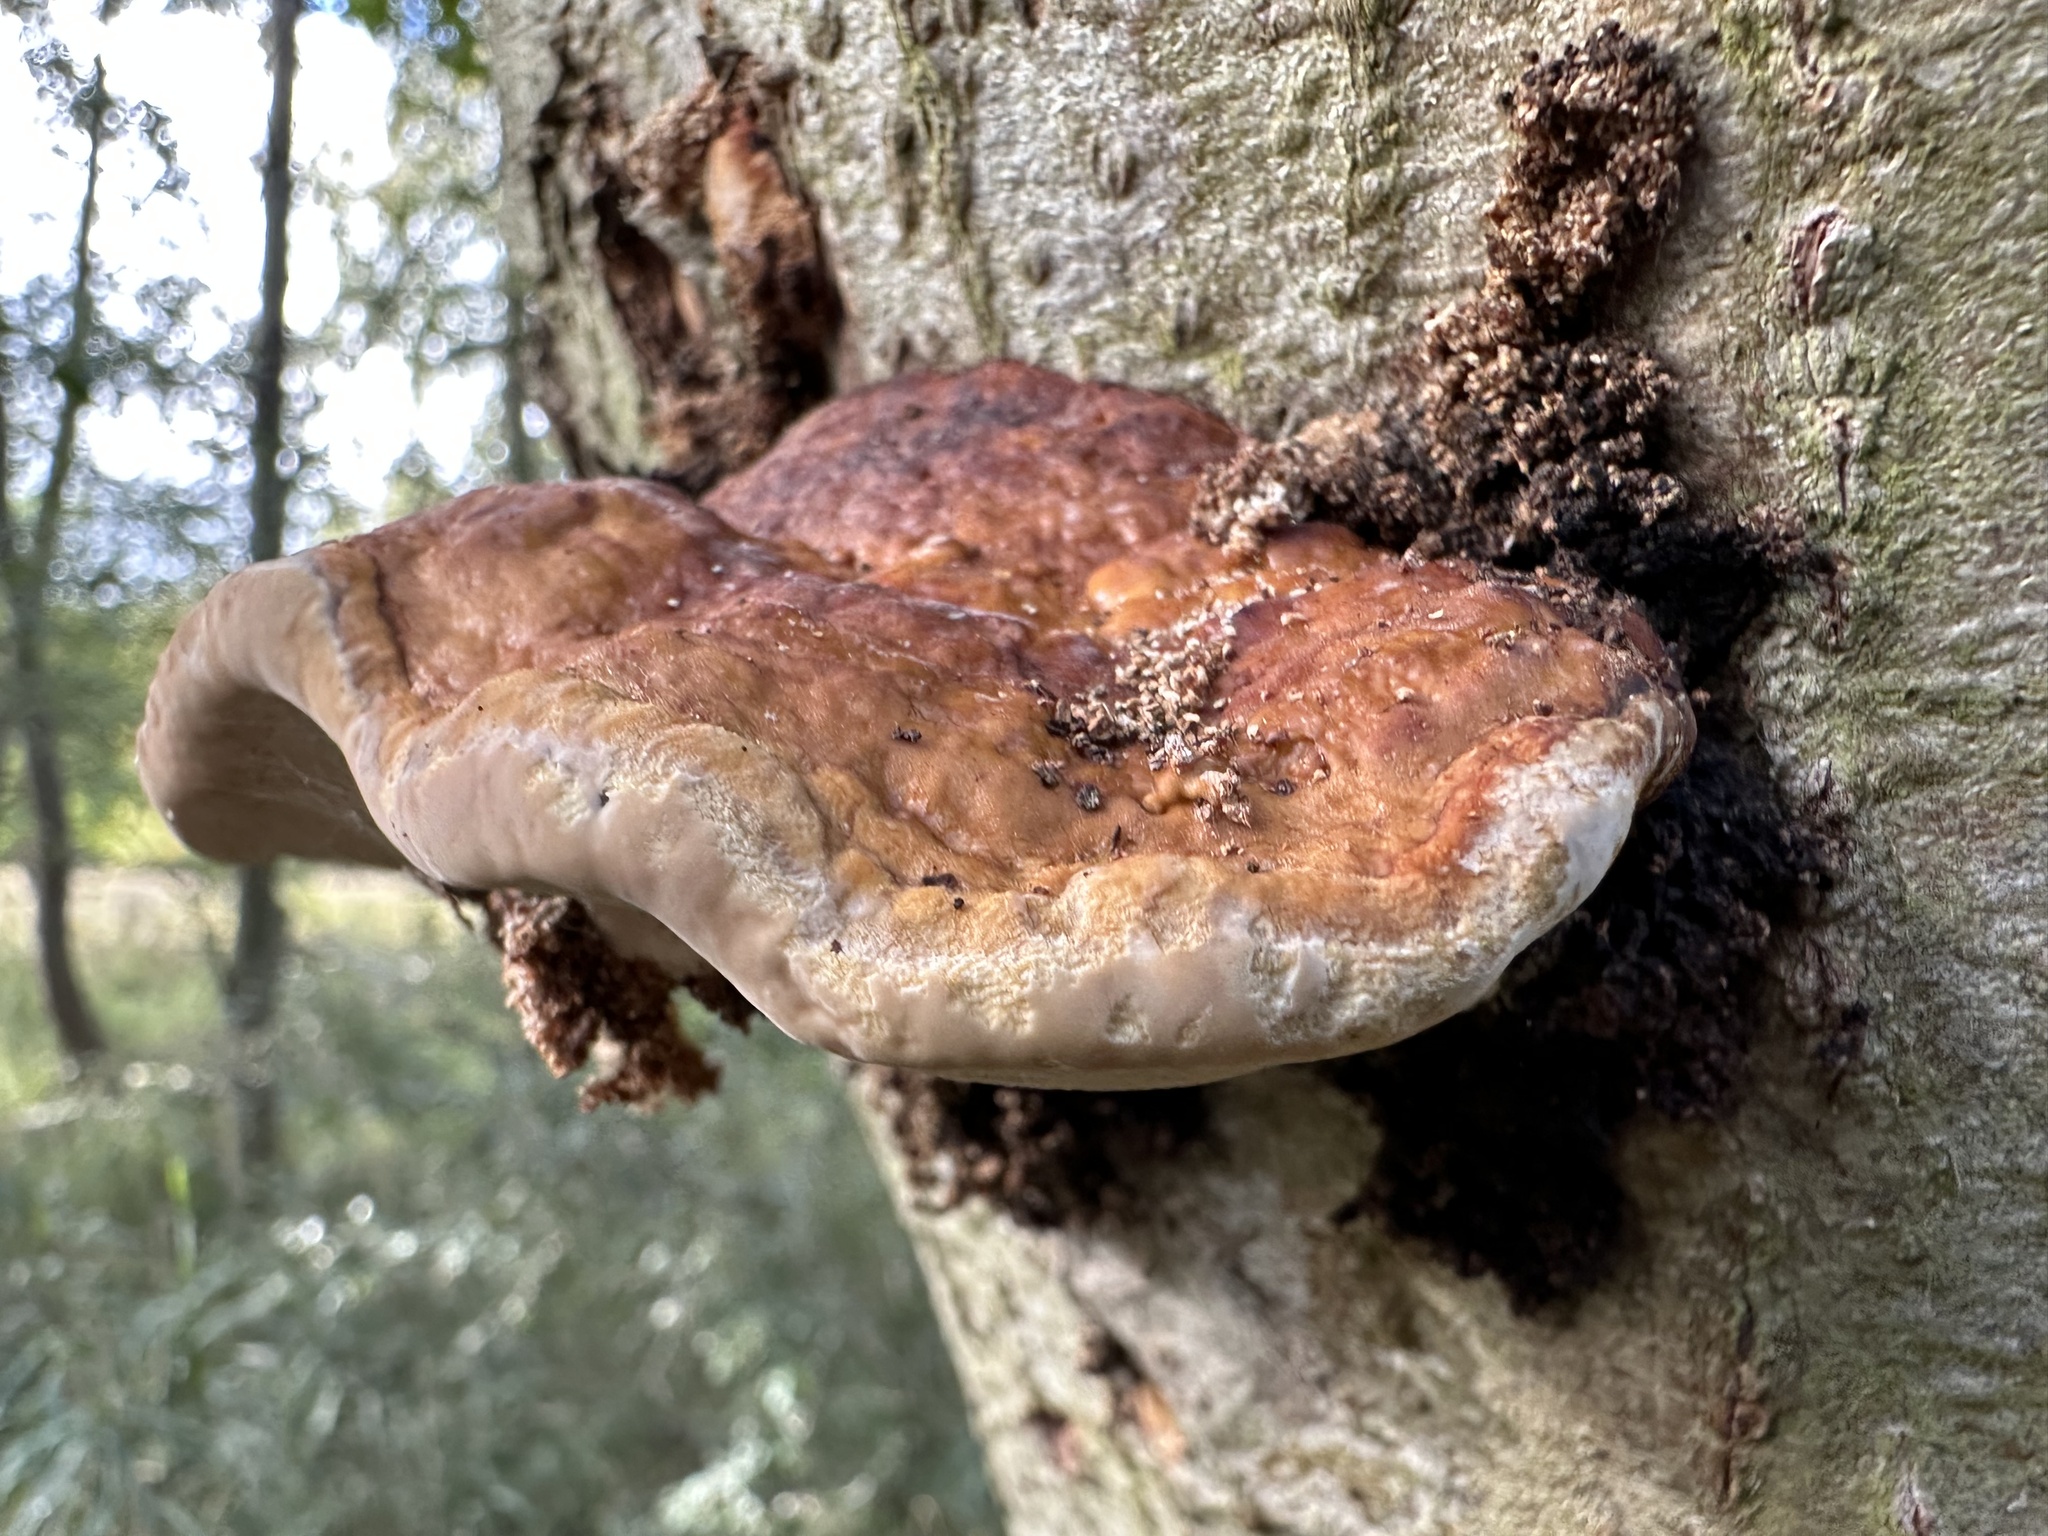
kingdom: Fungi
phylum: Basidiomycota
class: Agaricomycetes
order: Polyporales
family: Fomitopsidaceae
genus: Fomitopsis
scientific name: Fomitopsis pinicola
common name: Red-belted bracket
